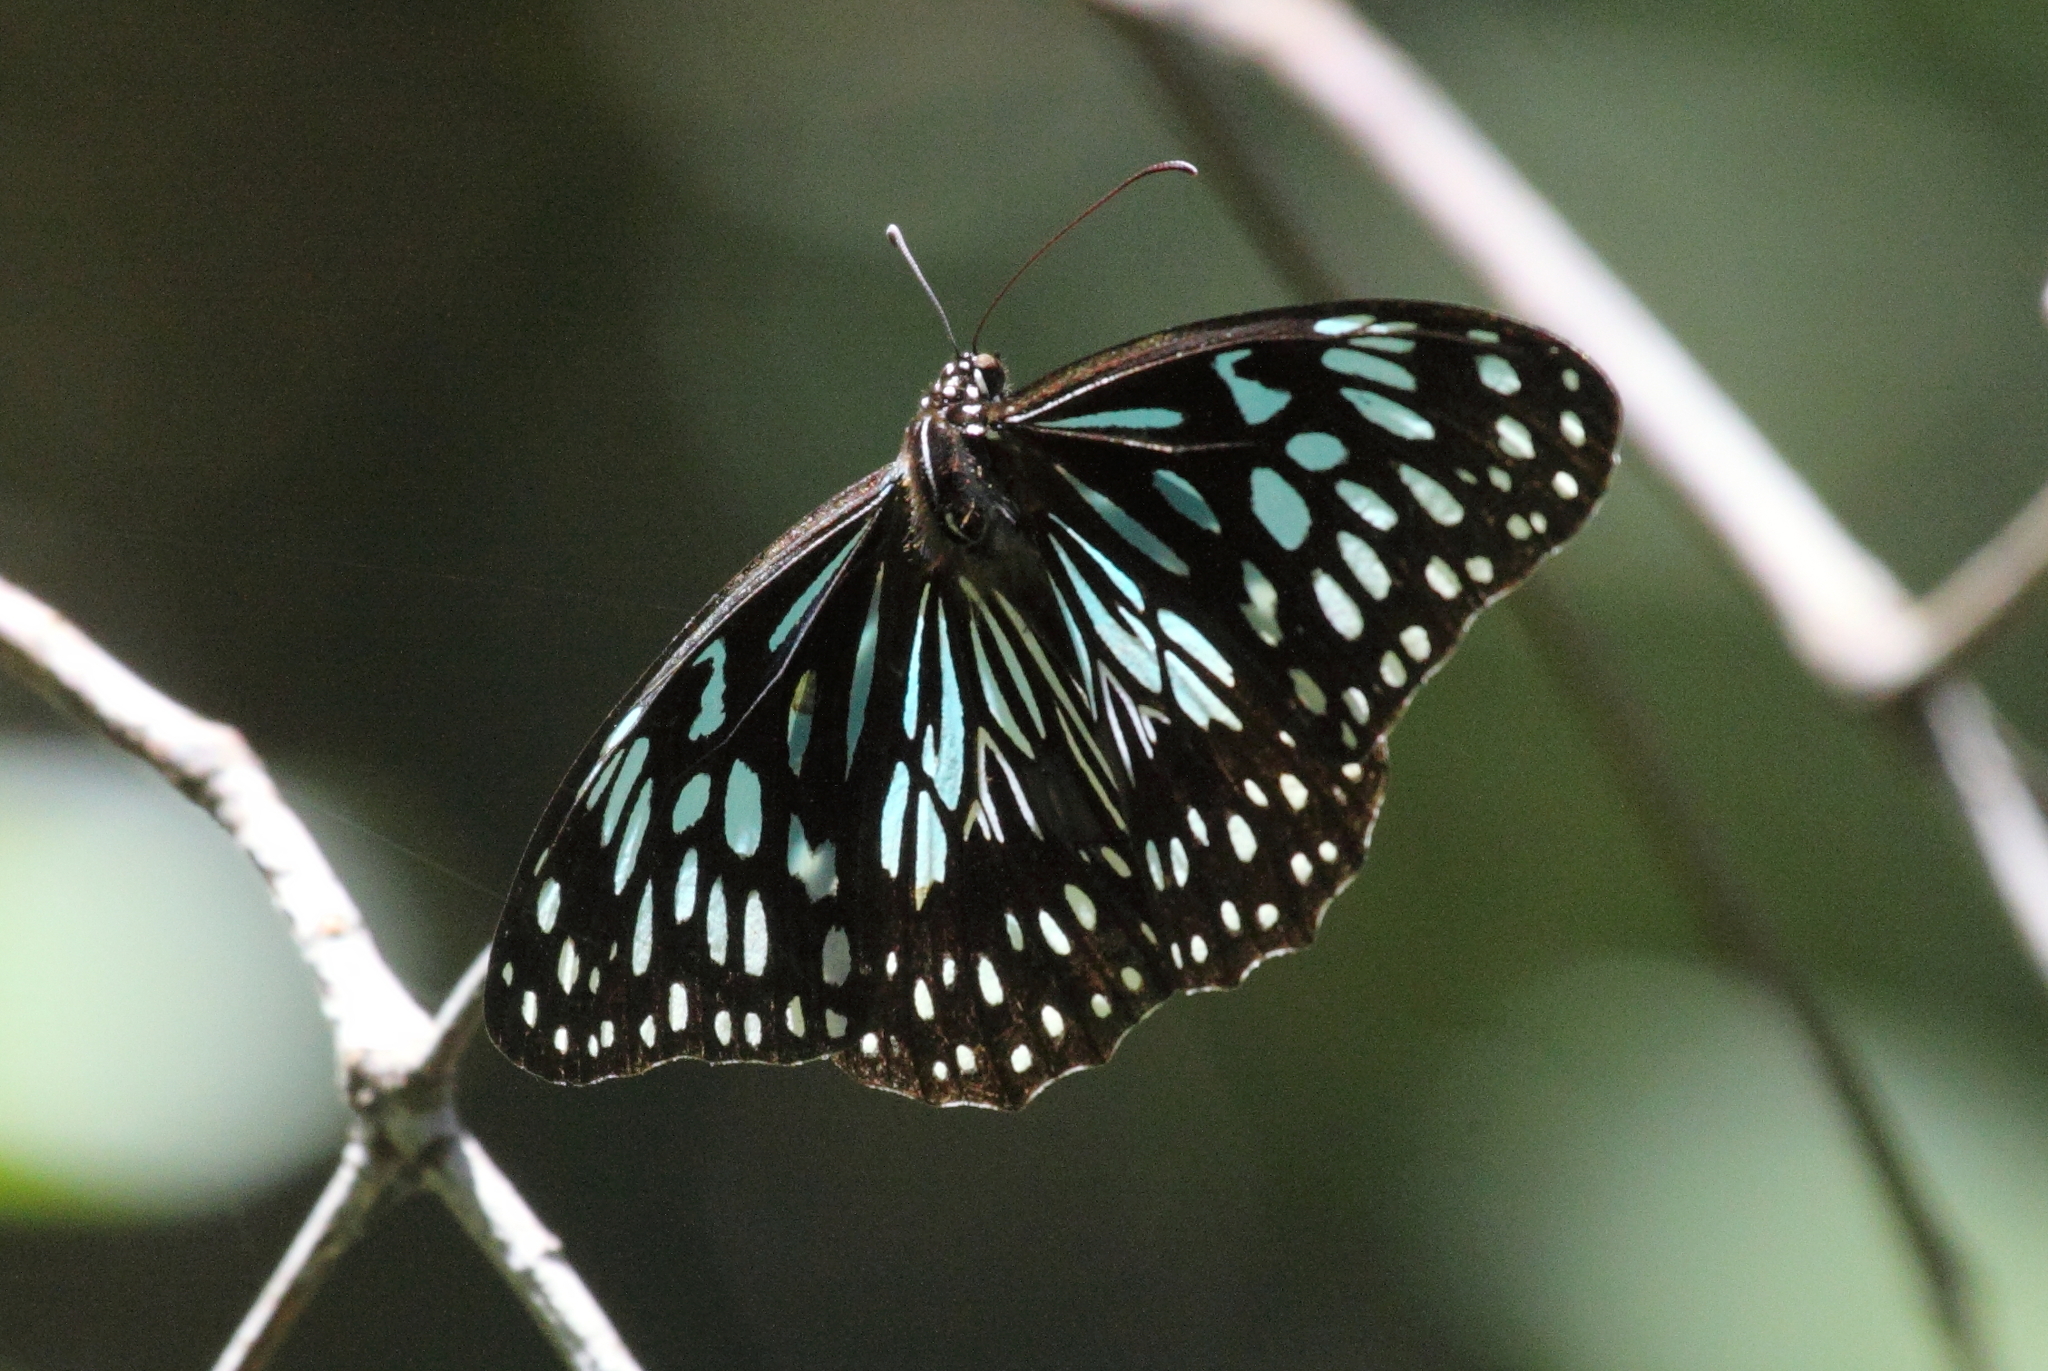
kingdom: Animalia
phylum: Arthropoda
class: Insecta
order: Lepidoptera
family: Nymphalidae
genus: Tirumala
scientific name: Tirumala hamata
